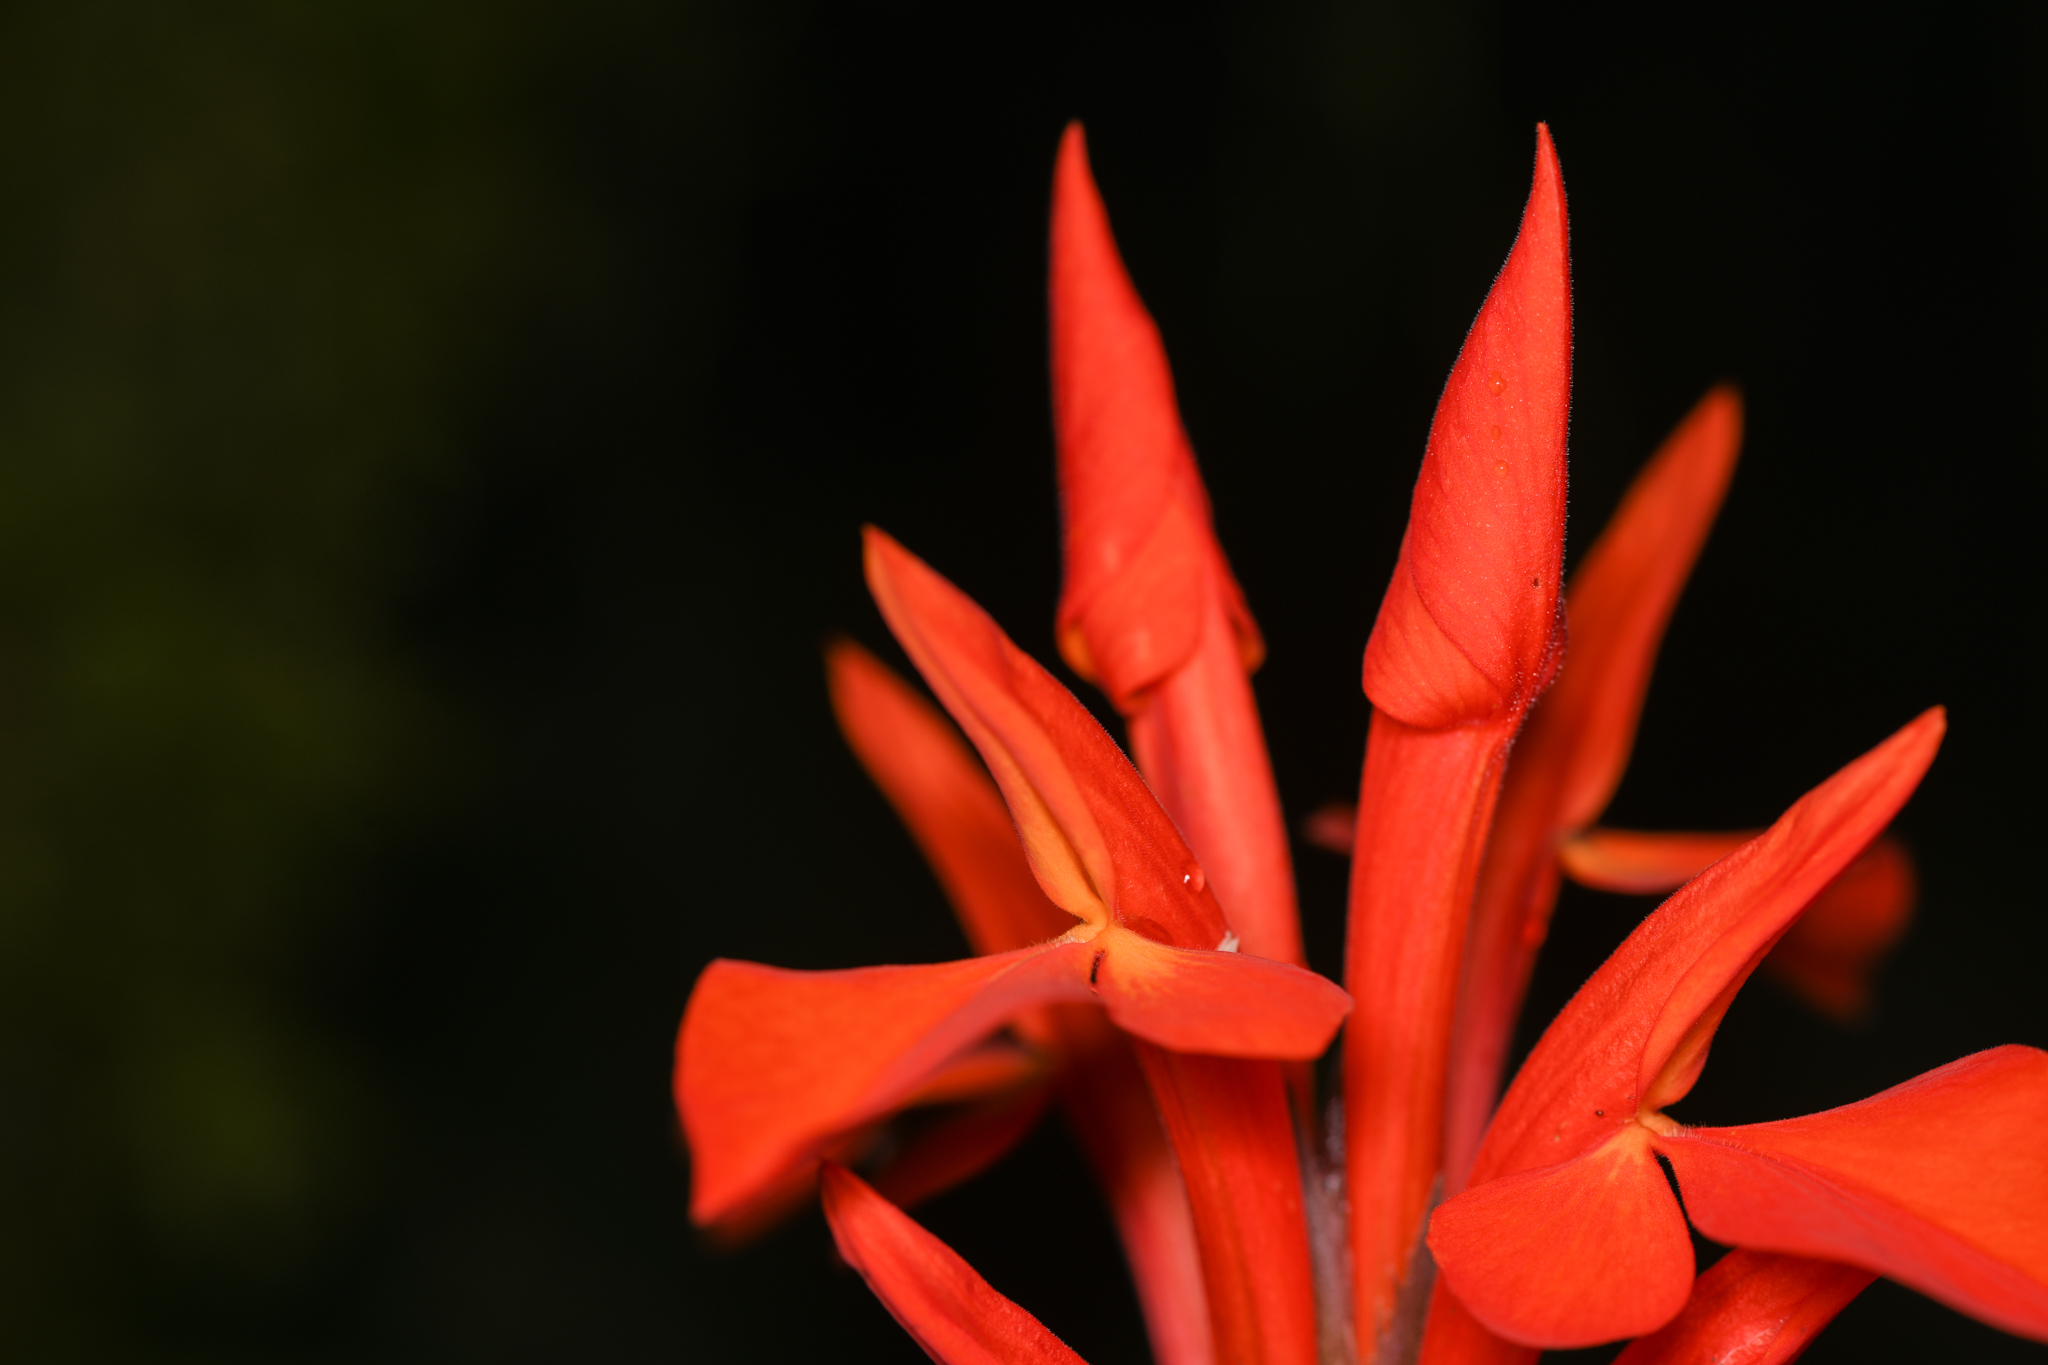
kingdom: Plantae
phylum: Tracheophyta
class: Magnoliopsida
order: Lamiales
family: Acanthaceae
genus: Aphelandra
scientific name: Aphelandra aurantiaca
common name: Fiery spike
